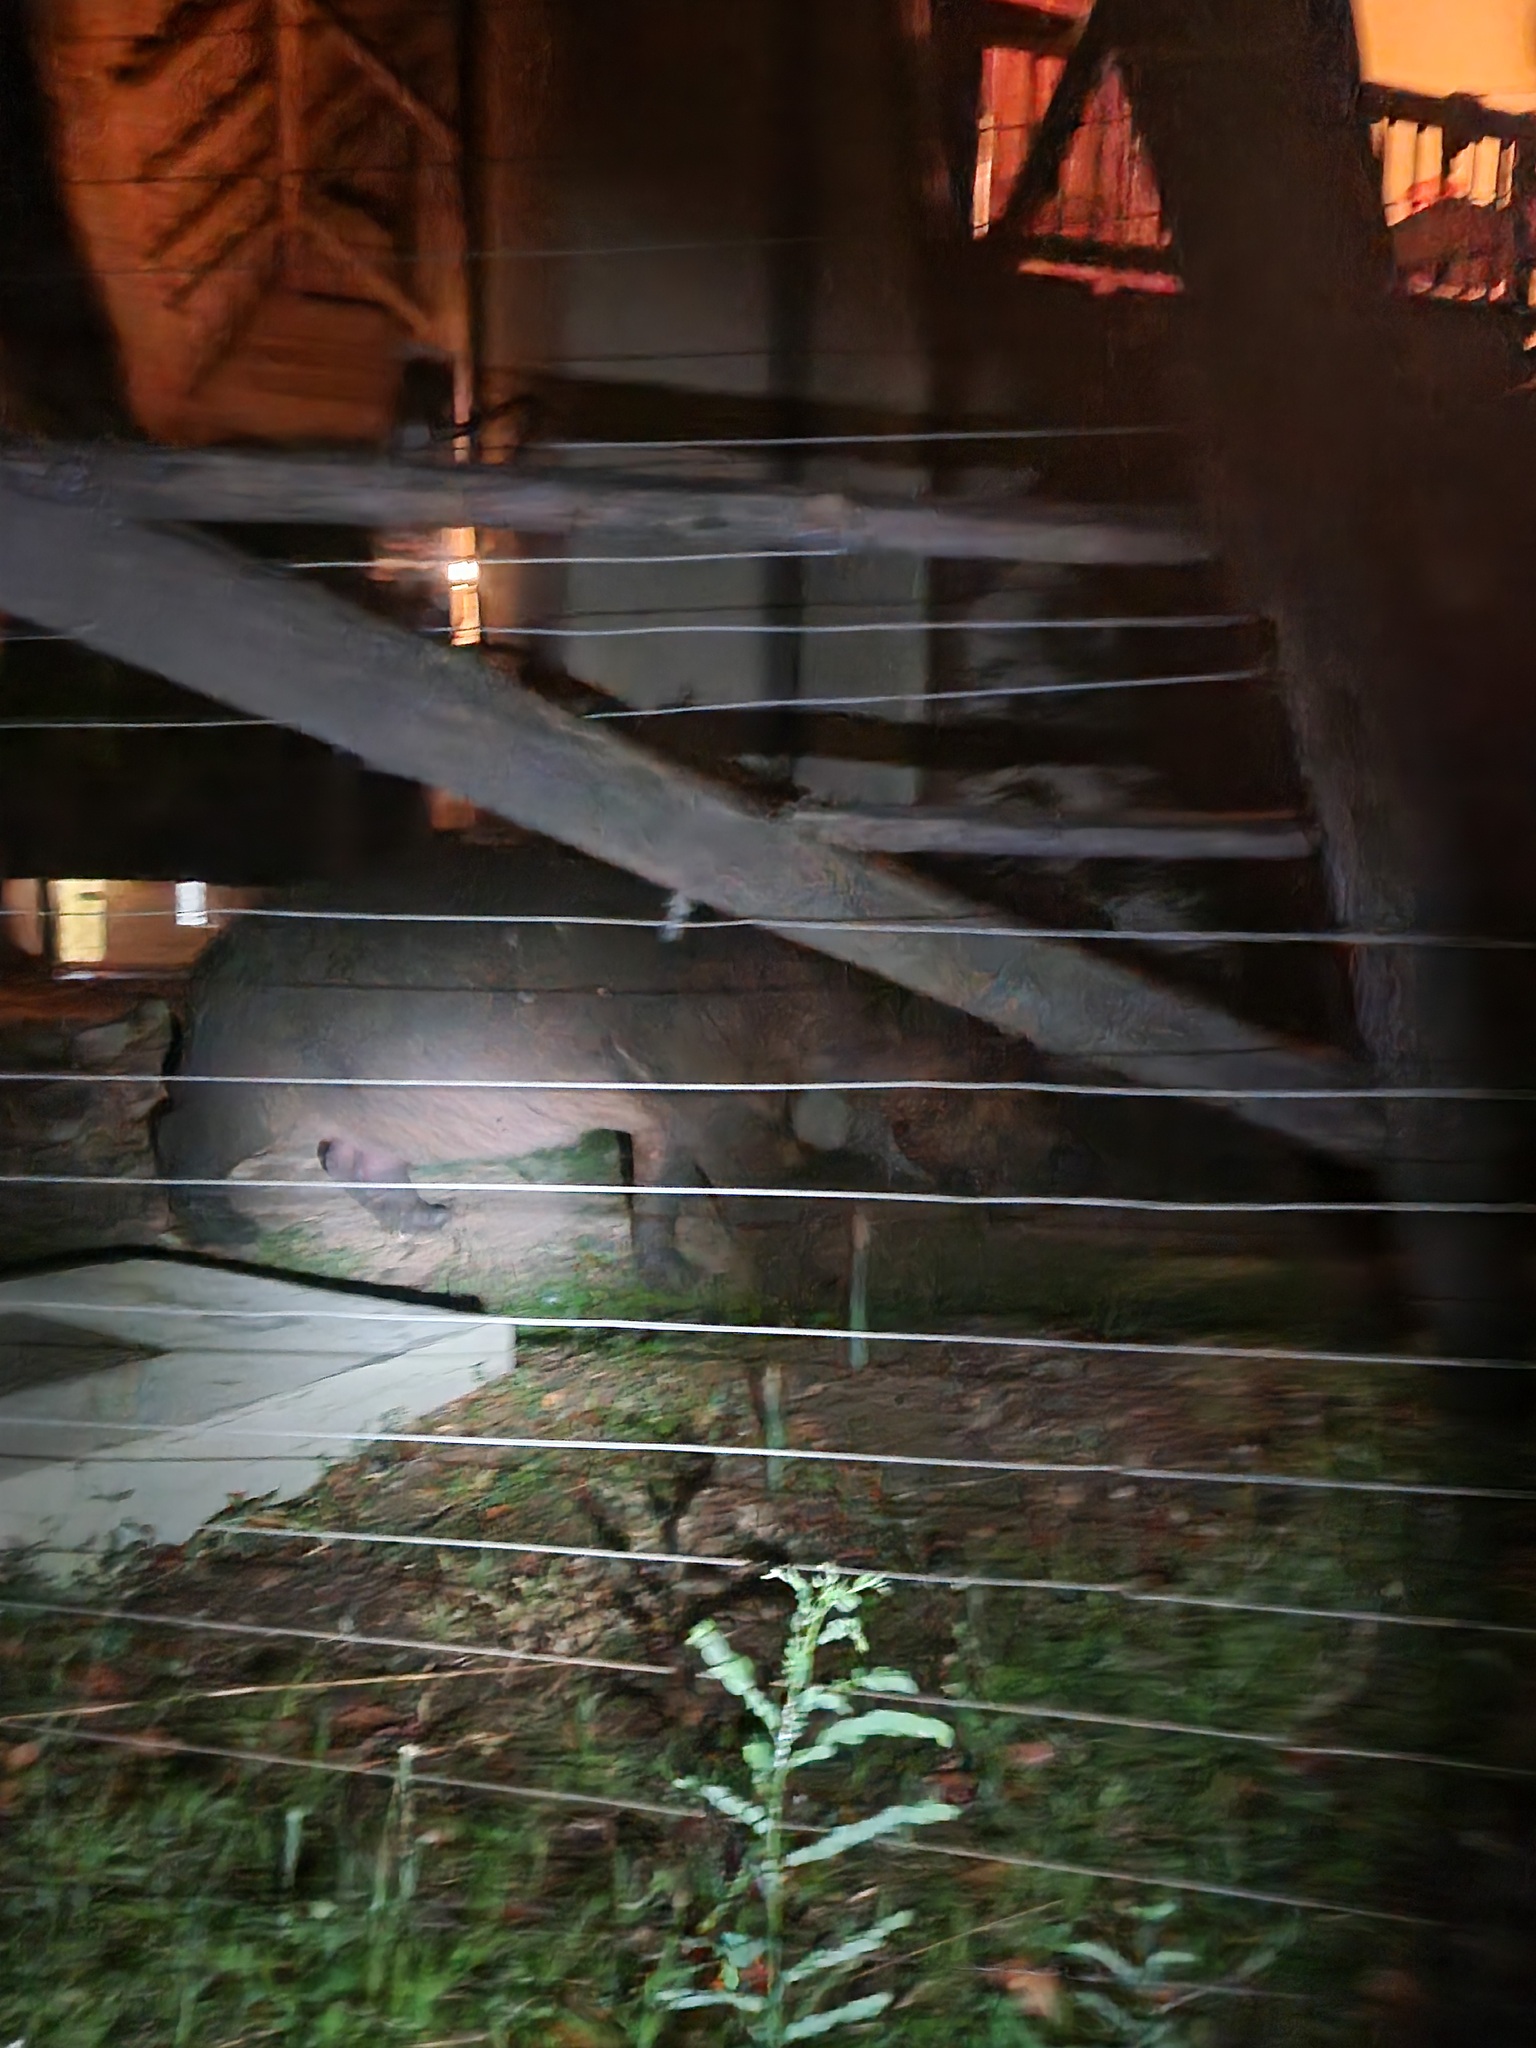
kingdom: Animalia
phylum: Chordata
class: Mammalia
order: Artiodactyla
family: Hippopotamidae
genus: Hippopotamus
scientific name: Hippopotamus amphibius
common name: Common hippopotamus
